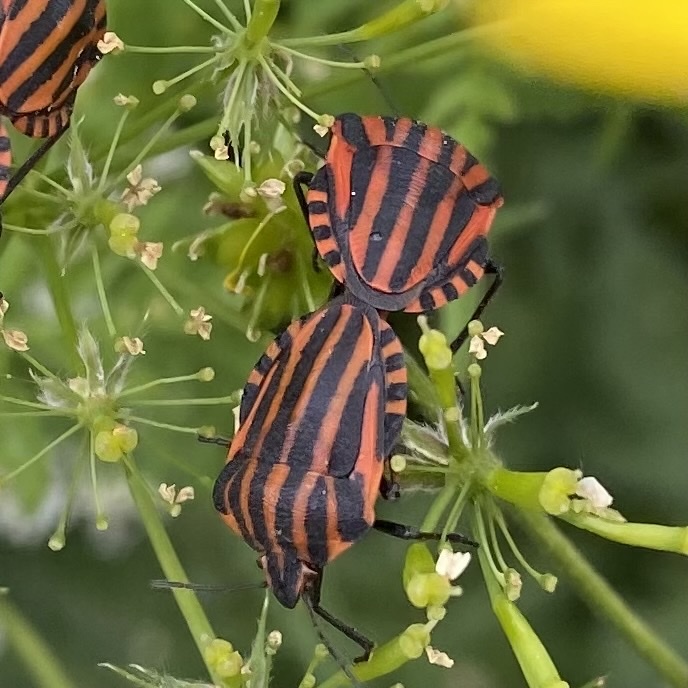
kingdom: Animalia
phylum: Arthropoda
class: Insecta
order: Hemiptera
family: Pentatomidae
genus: Graphosoma
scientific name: Graphosoma italicum
